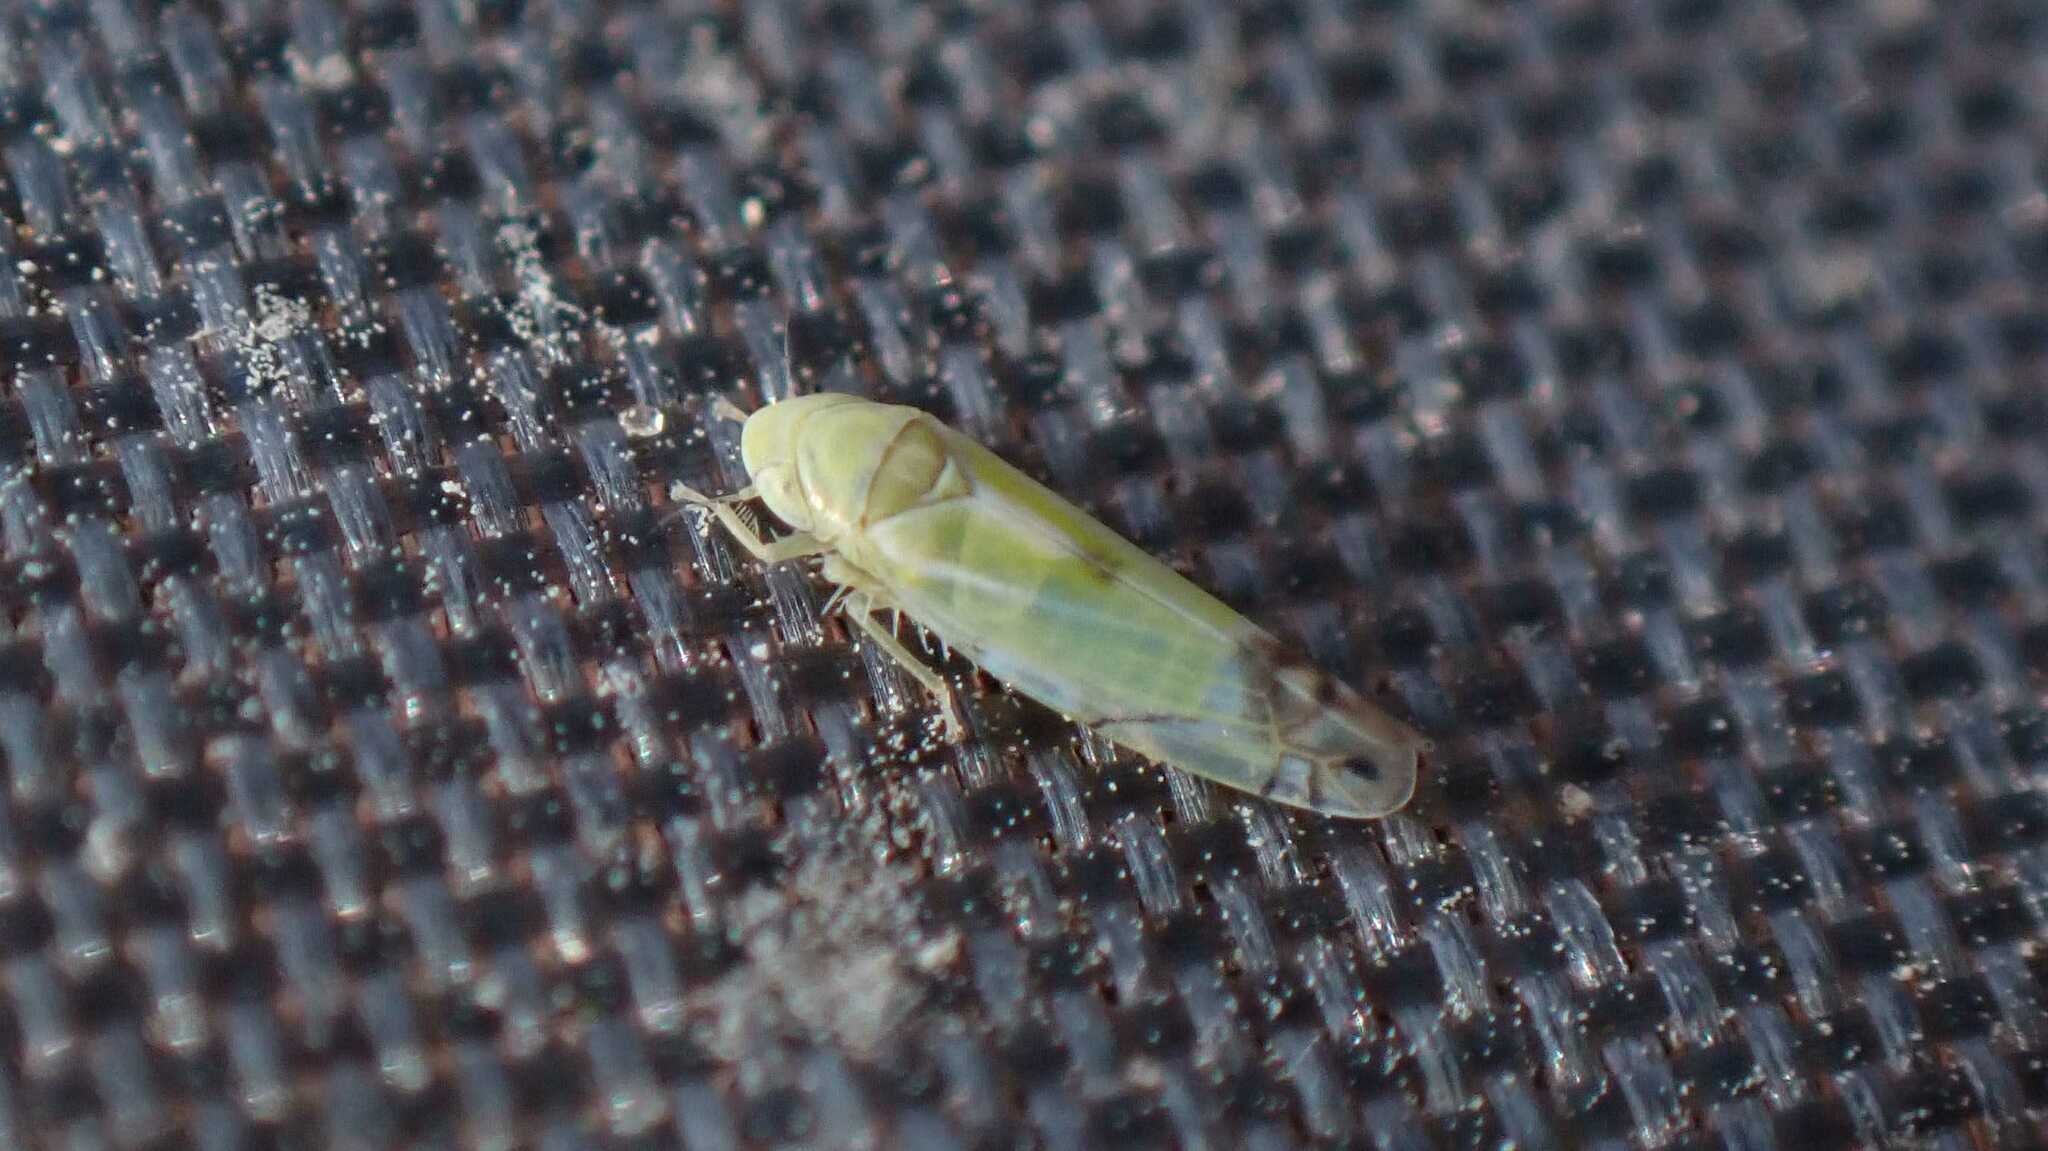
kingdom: Animalia
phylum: Arthropoda
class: Insecta
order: Hemiptera
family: Cicadellidae
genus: Zyginella
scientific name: Zyginella pulchra
